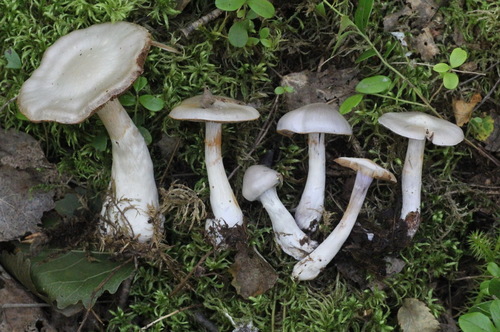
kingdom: Fungi
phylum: Basidiomycota
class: Agaricomycetes
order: Agaricales
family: Cortinariaceae
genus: Thaxterogaster
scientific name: Thaxterogaster porphyropus
